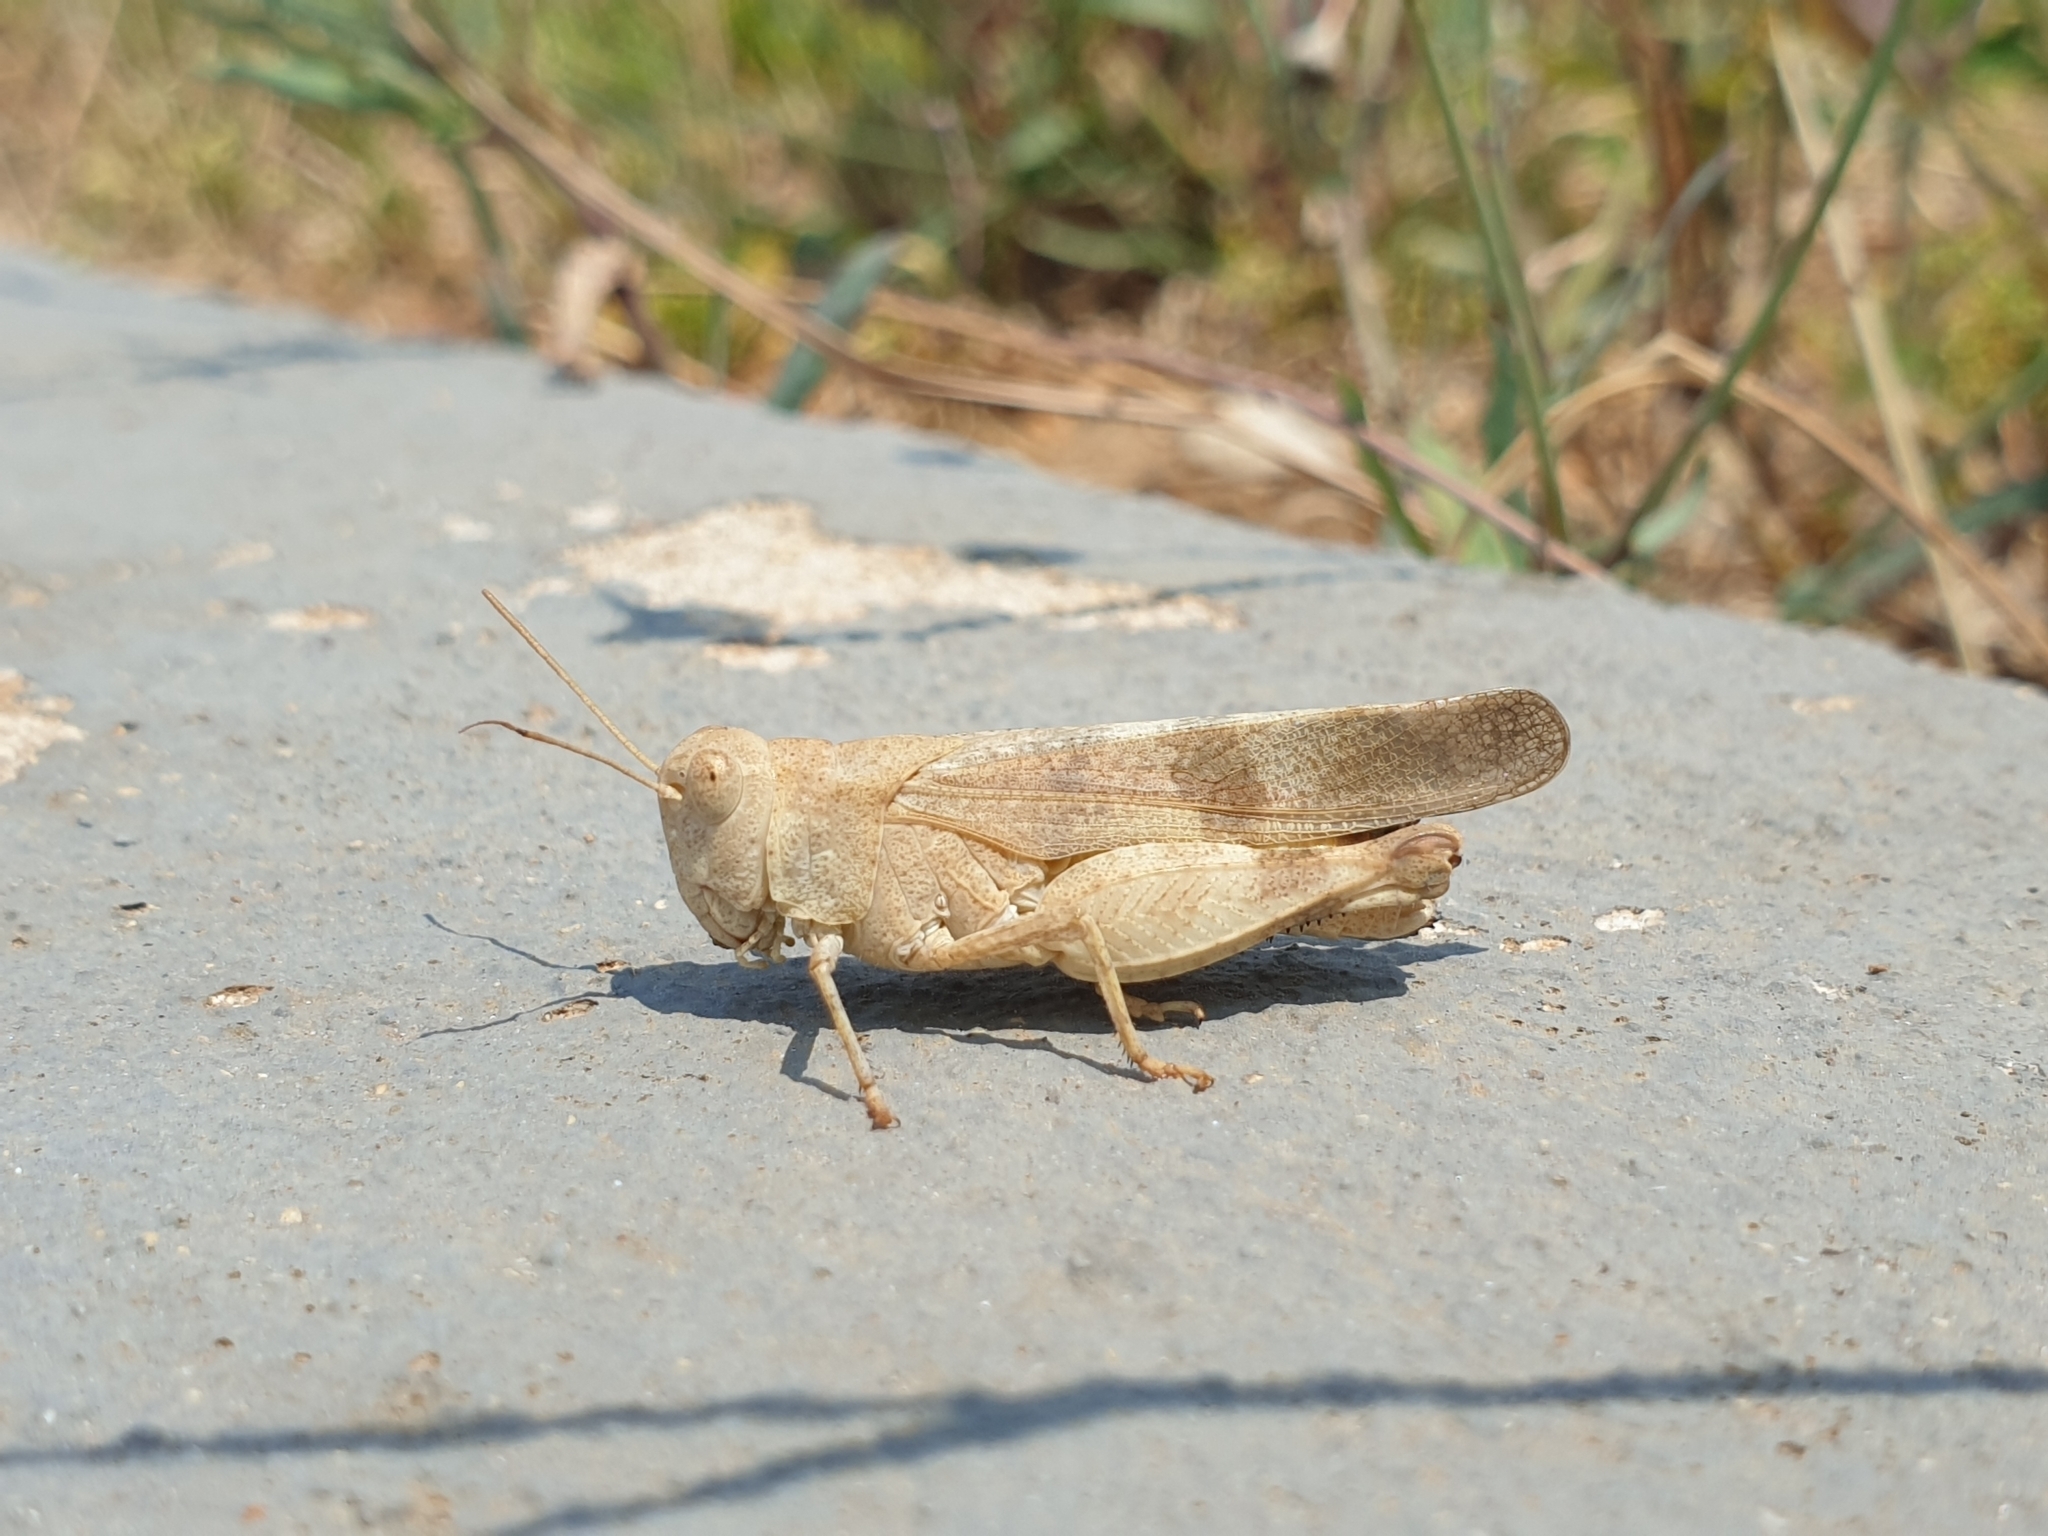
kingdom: Animalia
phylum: Arthropoda
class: Insecta
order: Orthoptera
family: Acrididae
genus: Oedipoda
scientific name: Oedipoda germanica
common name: Red band-winged grasshopper
